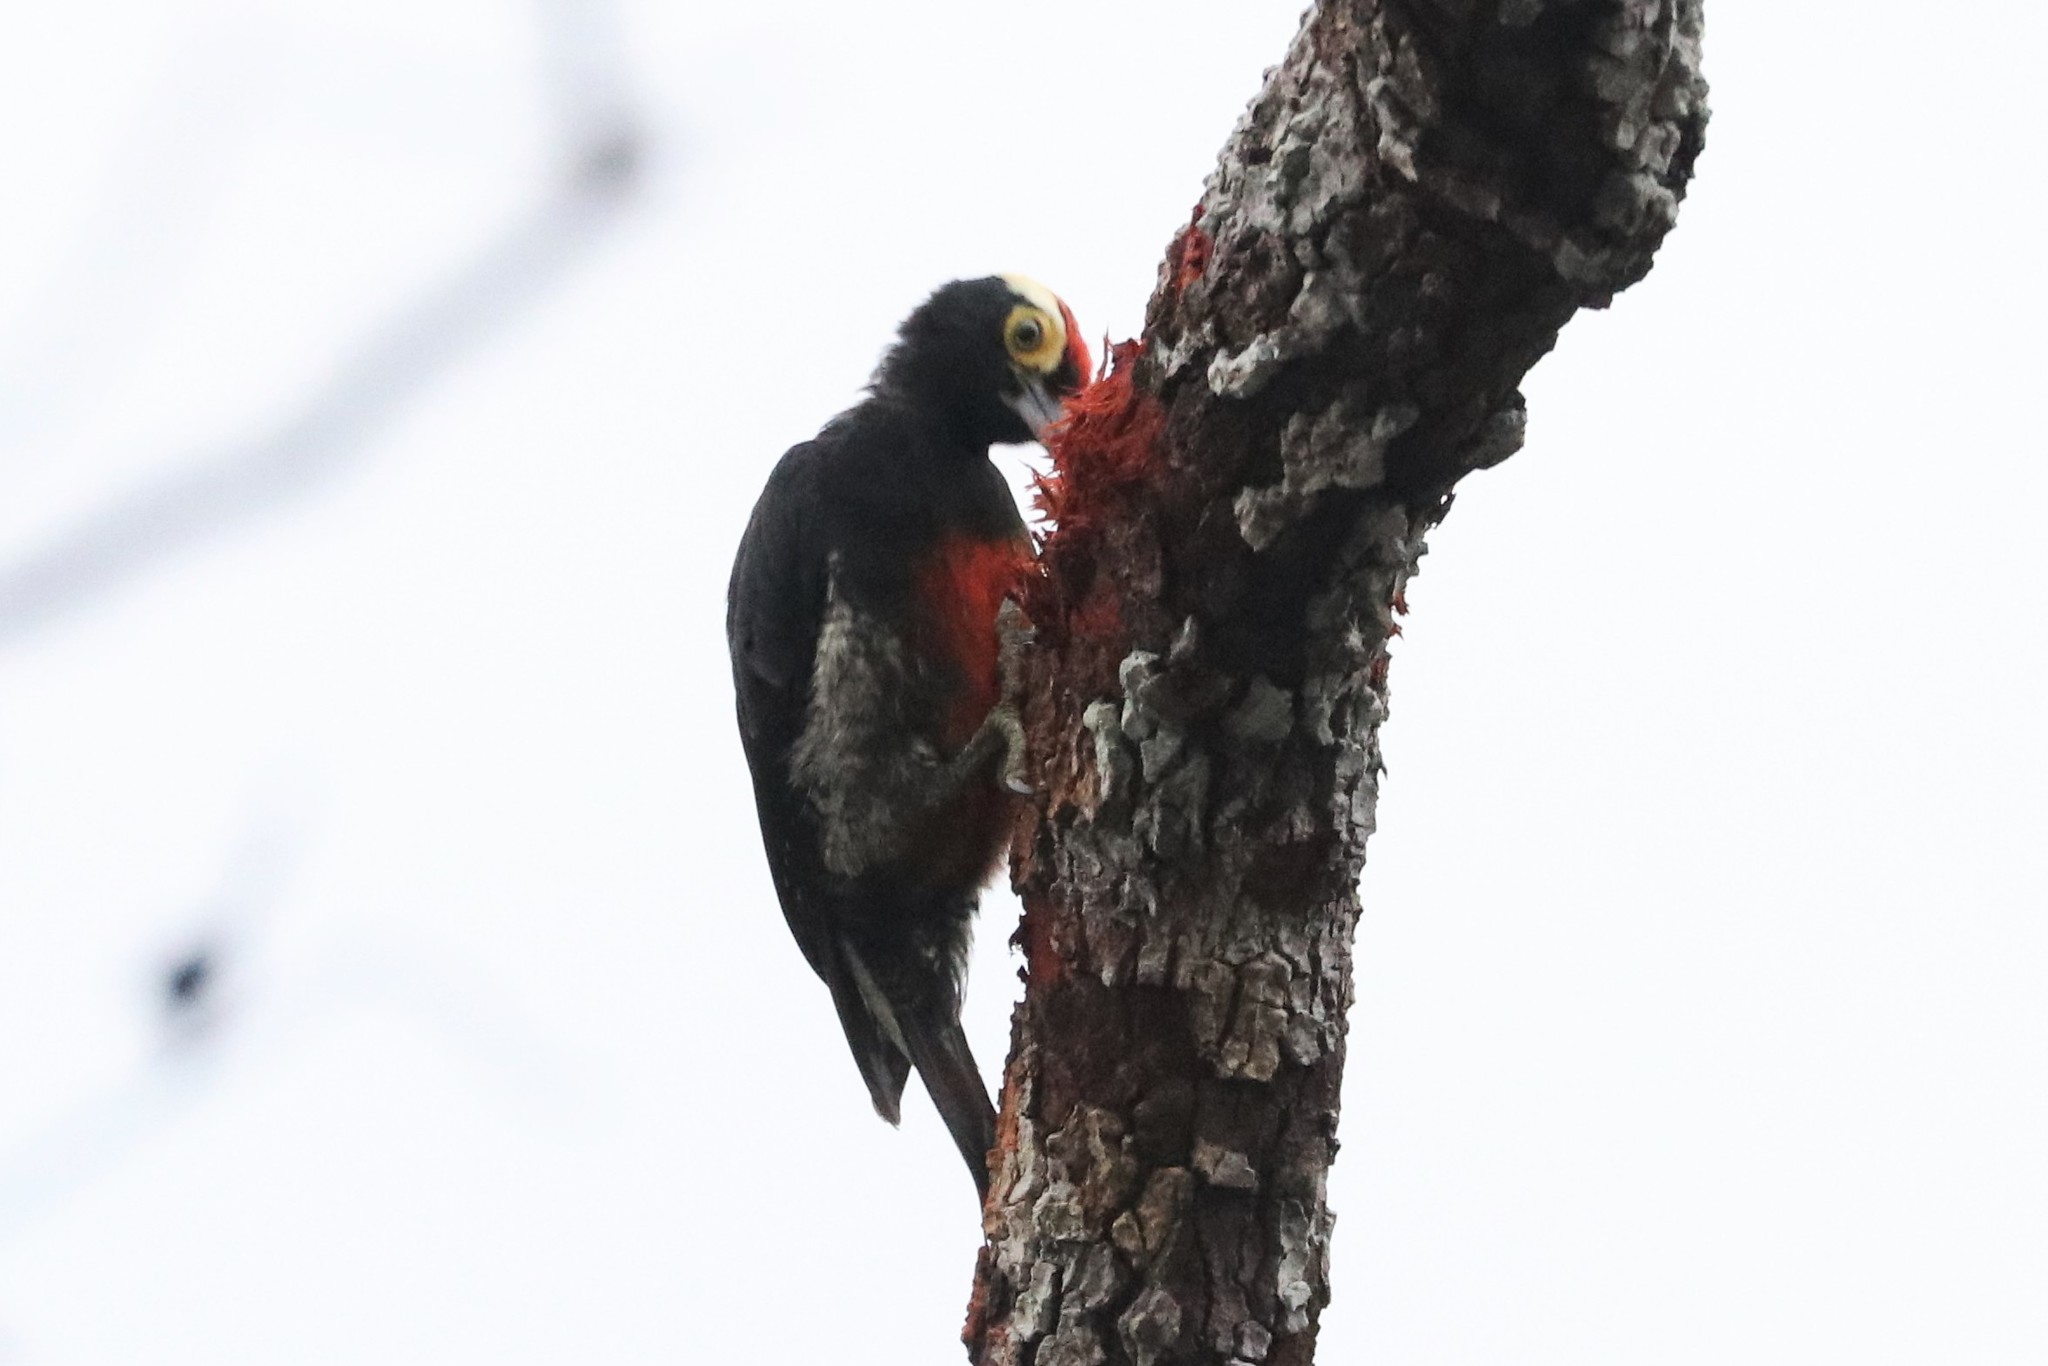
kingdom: Animalia
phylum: Chordata
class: Aves
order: Piciformes
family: Picidae
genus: Melanerpes
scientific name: Melanerpes cruentatus
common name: Yellow-tufted woodpecker
